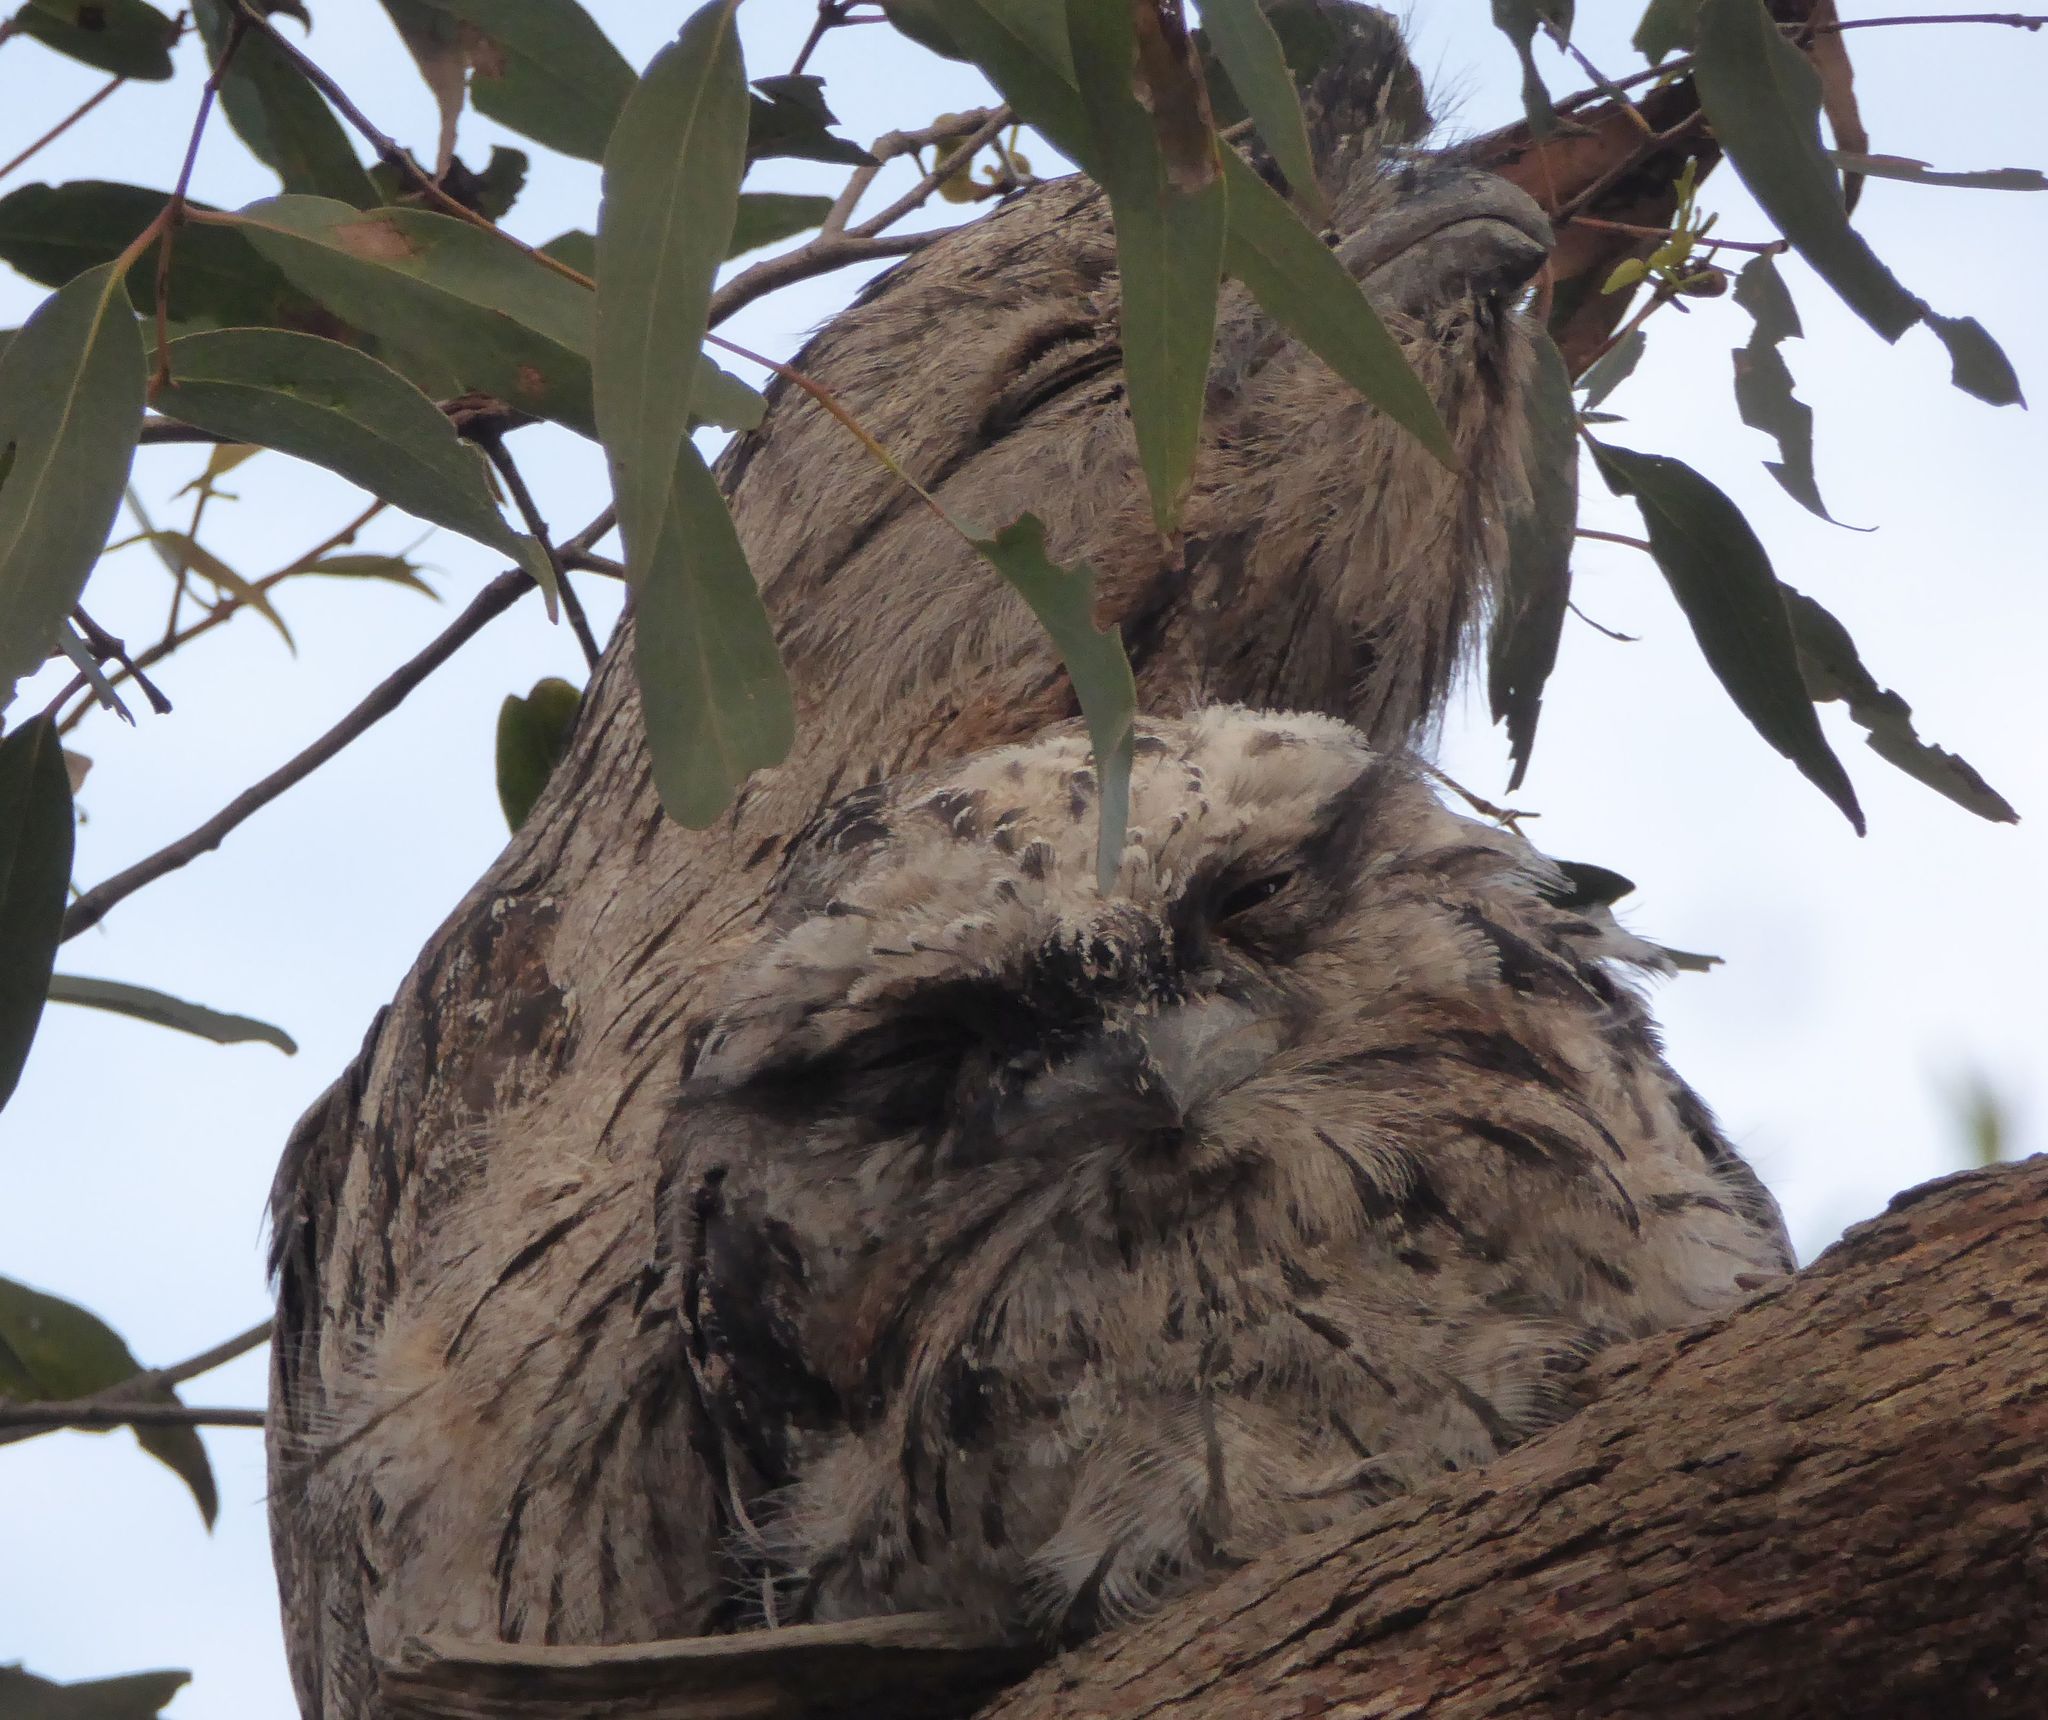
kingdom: Animalia
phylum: Chordata
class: Aves
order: Caprimulgiformes
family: Podargidae
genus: Podargus
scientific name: Podargus strigoides
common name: Tawny frogmouth
